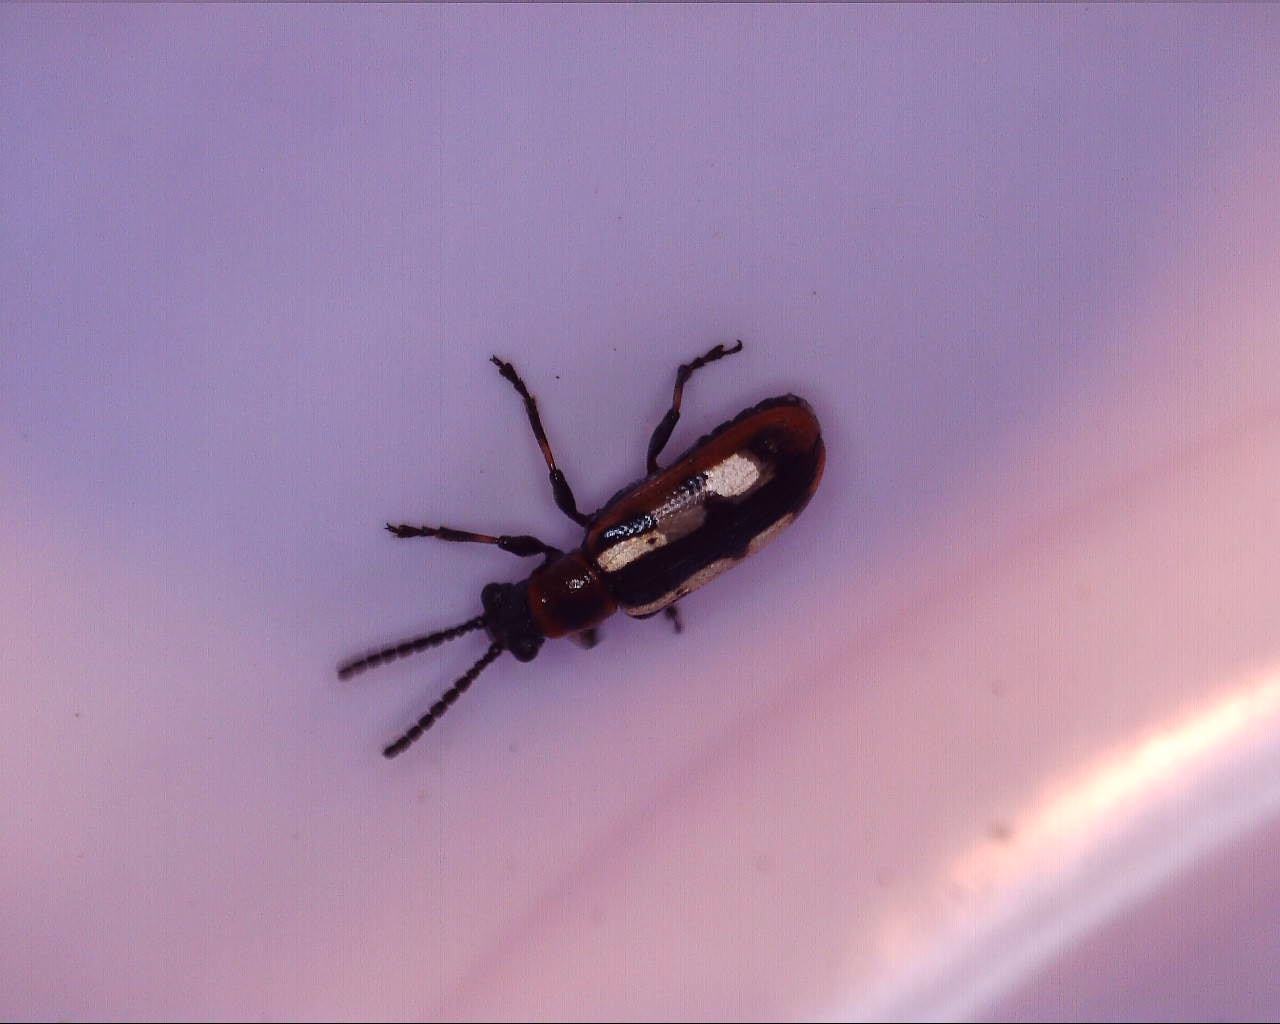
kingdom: Animalia
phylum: Arthropoda
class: Insecta
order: Coleoptera
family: Chrysomelidae
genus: Crioceris
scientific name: Crioceris asparagi
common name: Asparagus beetle
